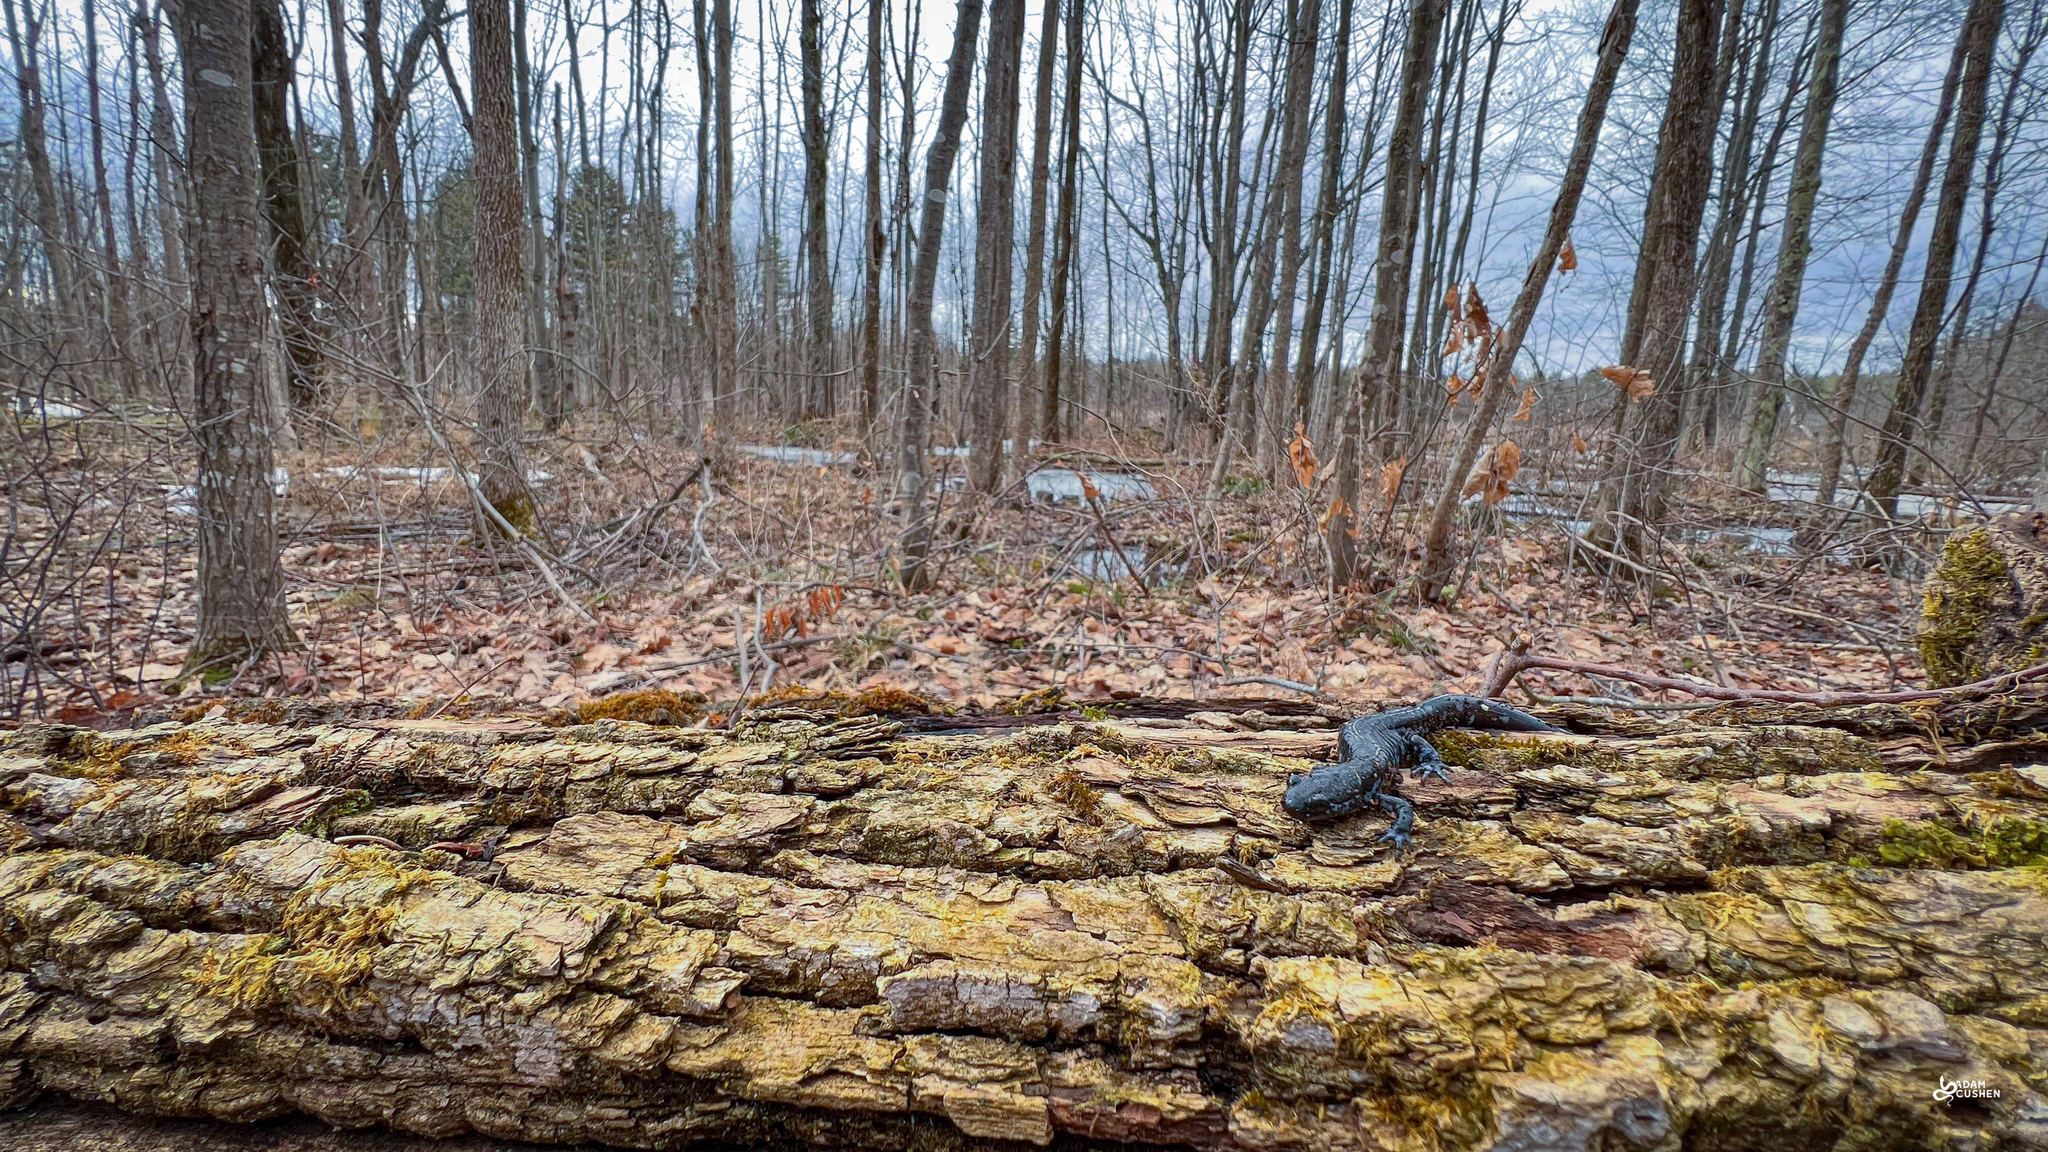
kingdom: Animalia
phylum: Chordata
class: Amphibia
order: Caudata
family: Ambystomatidae
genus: Ambystoma
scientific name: Ambystoma laterale
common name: Blue-spotted salamander
